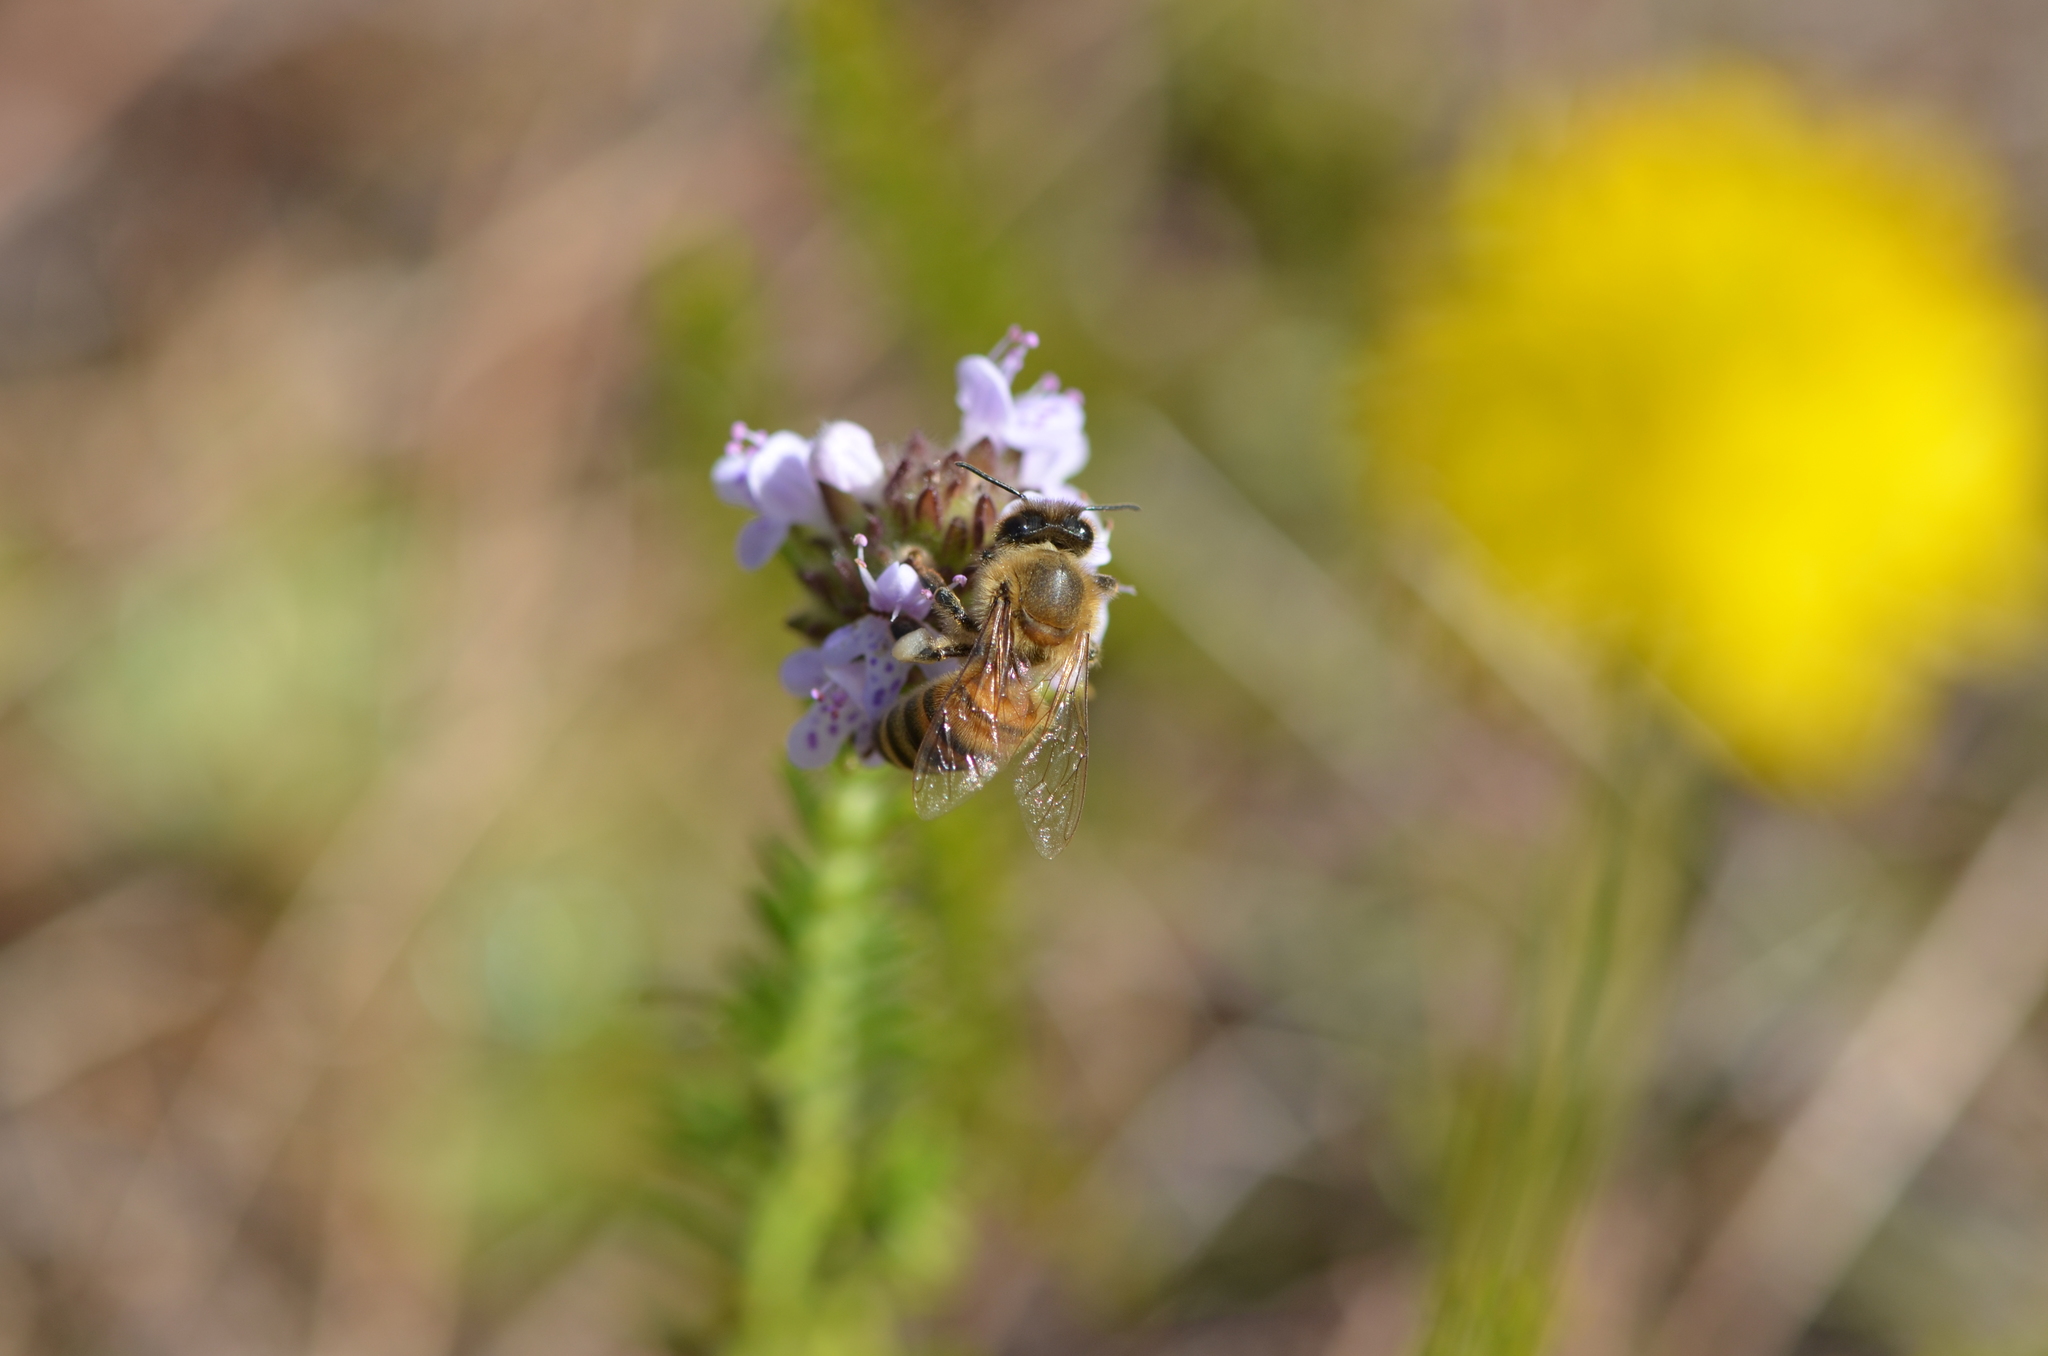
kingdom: Animalia
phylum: Arthropoda
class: Insecta
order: Hymenoptera
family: Apidae
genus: Apis
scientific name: Apis mellifera
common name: Honey bee
